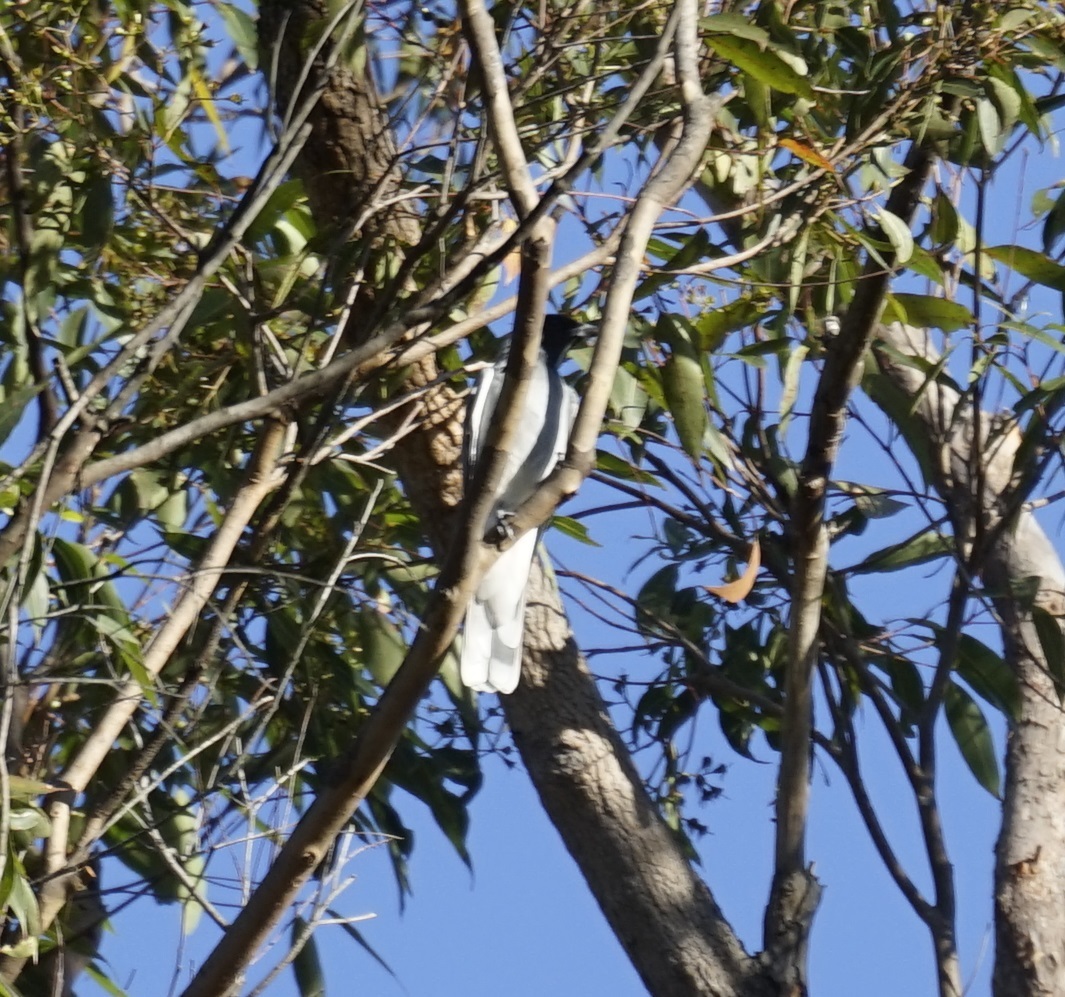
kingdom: Animalia
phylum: Chordata
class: Aves
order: Passeriformes
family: Campephagidae
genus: Coracina
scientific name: Coracina novaehollandiae
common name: Black-faced cuckooshrike
